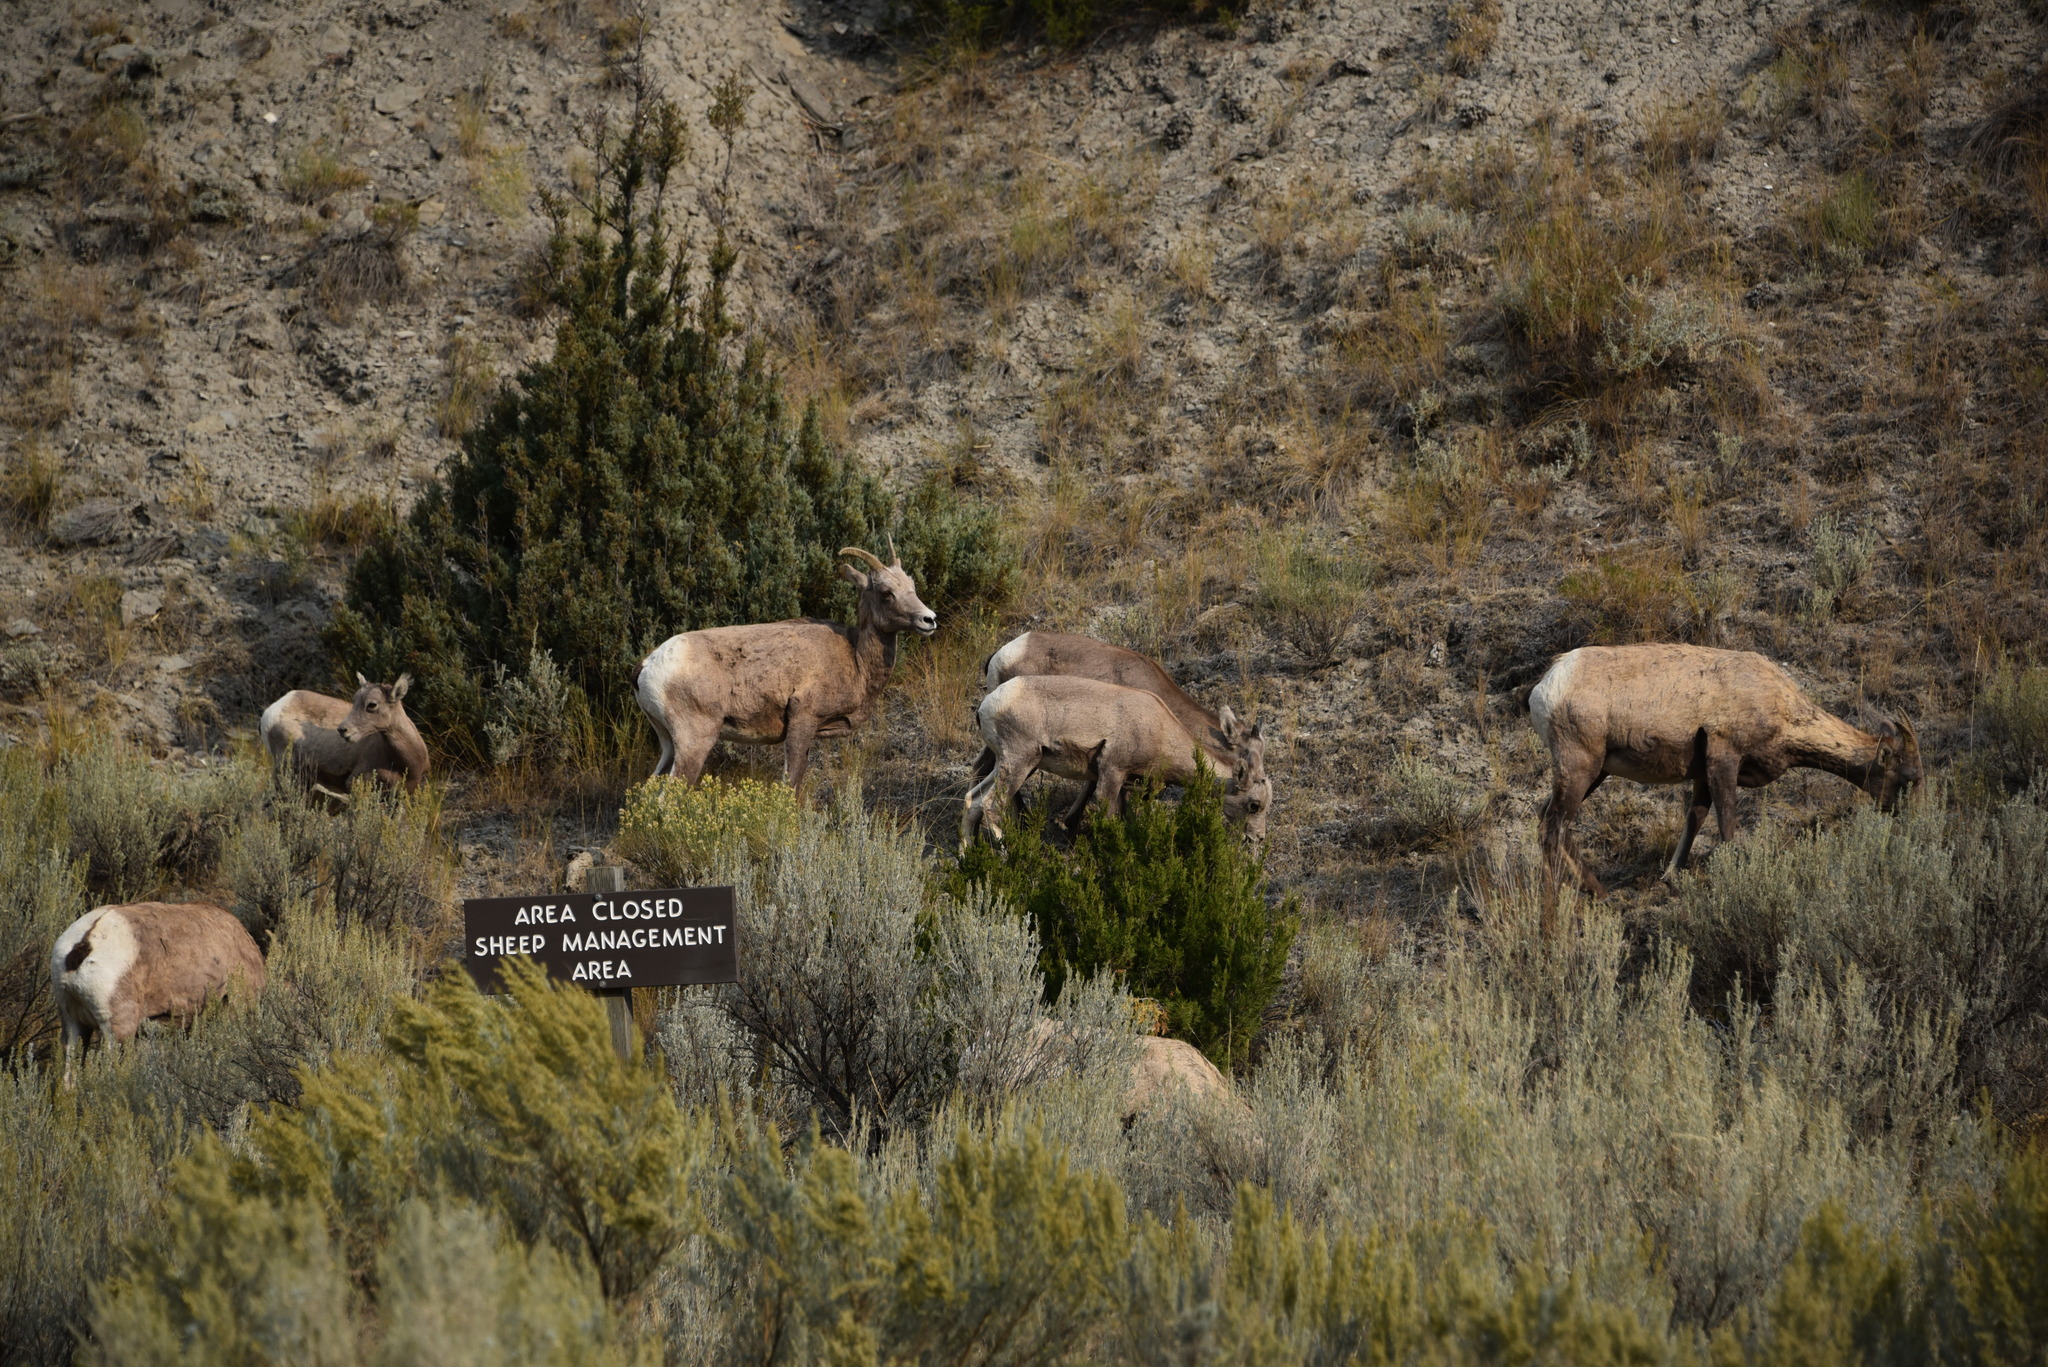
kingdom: Animalia
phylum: Chordata
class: Mammalia
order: Artiodactyla
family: Bovidae
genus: Ovis
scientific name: Ovis canadensis
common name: Bighorn sheep
